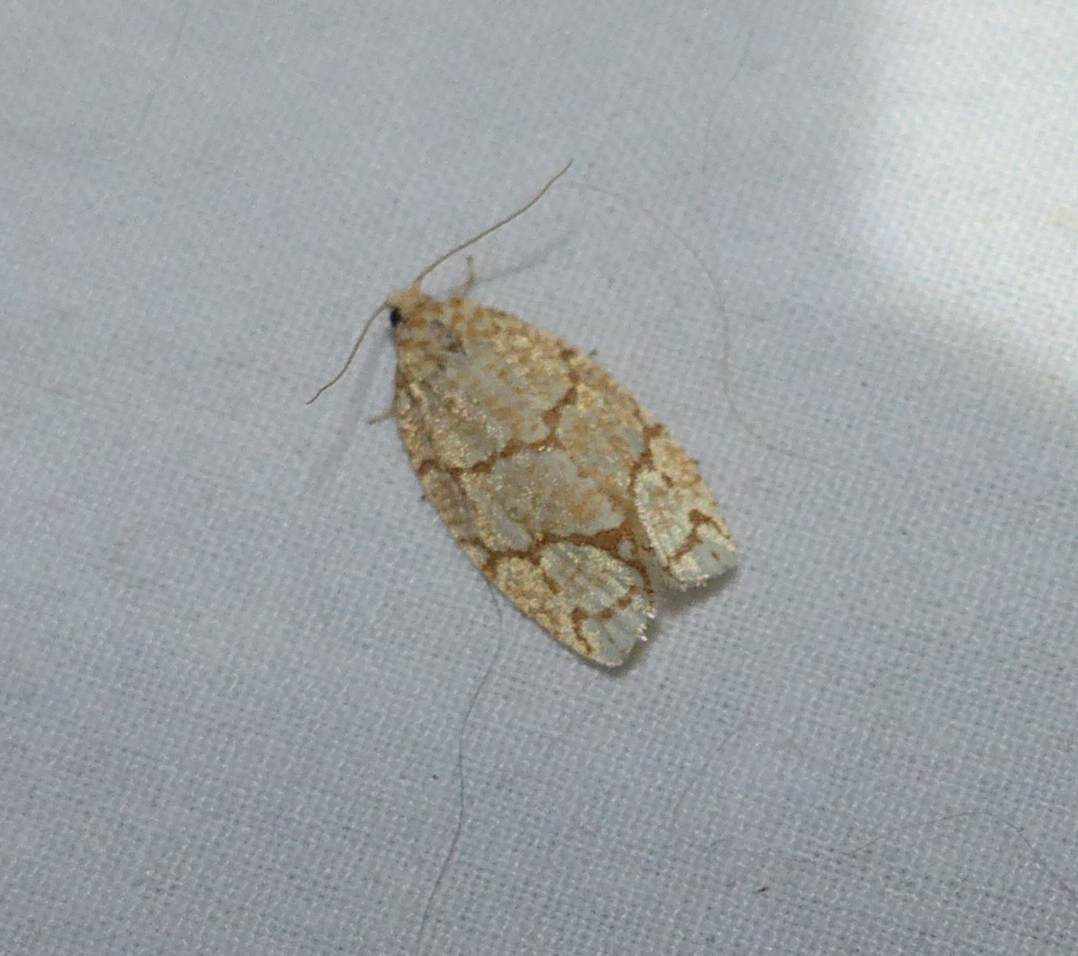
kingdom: Animalia
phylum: Arthropoda
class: Insecta
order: Lepidoptera
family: Tortricidae
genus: Argyrotaenia
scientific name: Argyrotaenia quercifoliana
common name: Yellow-winged oak leafroller moth
